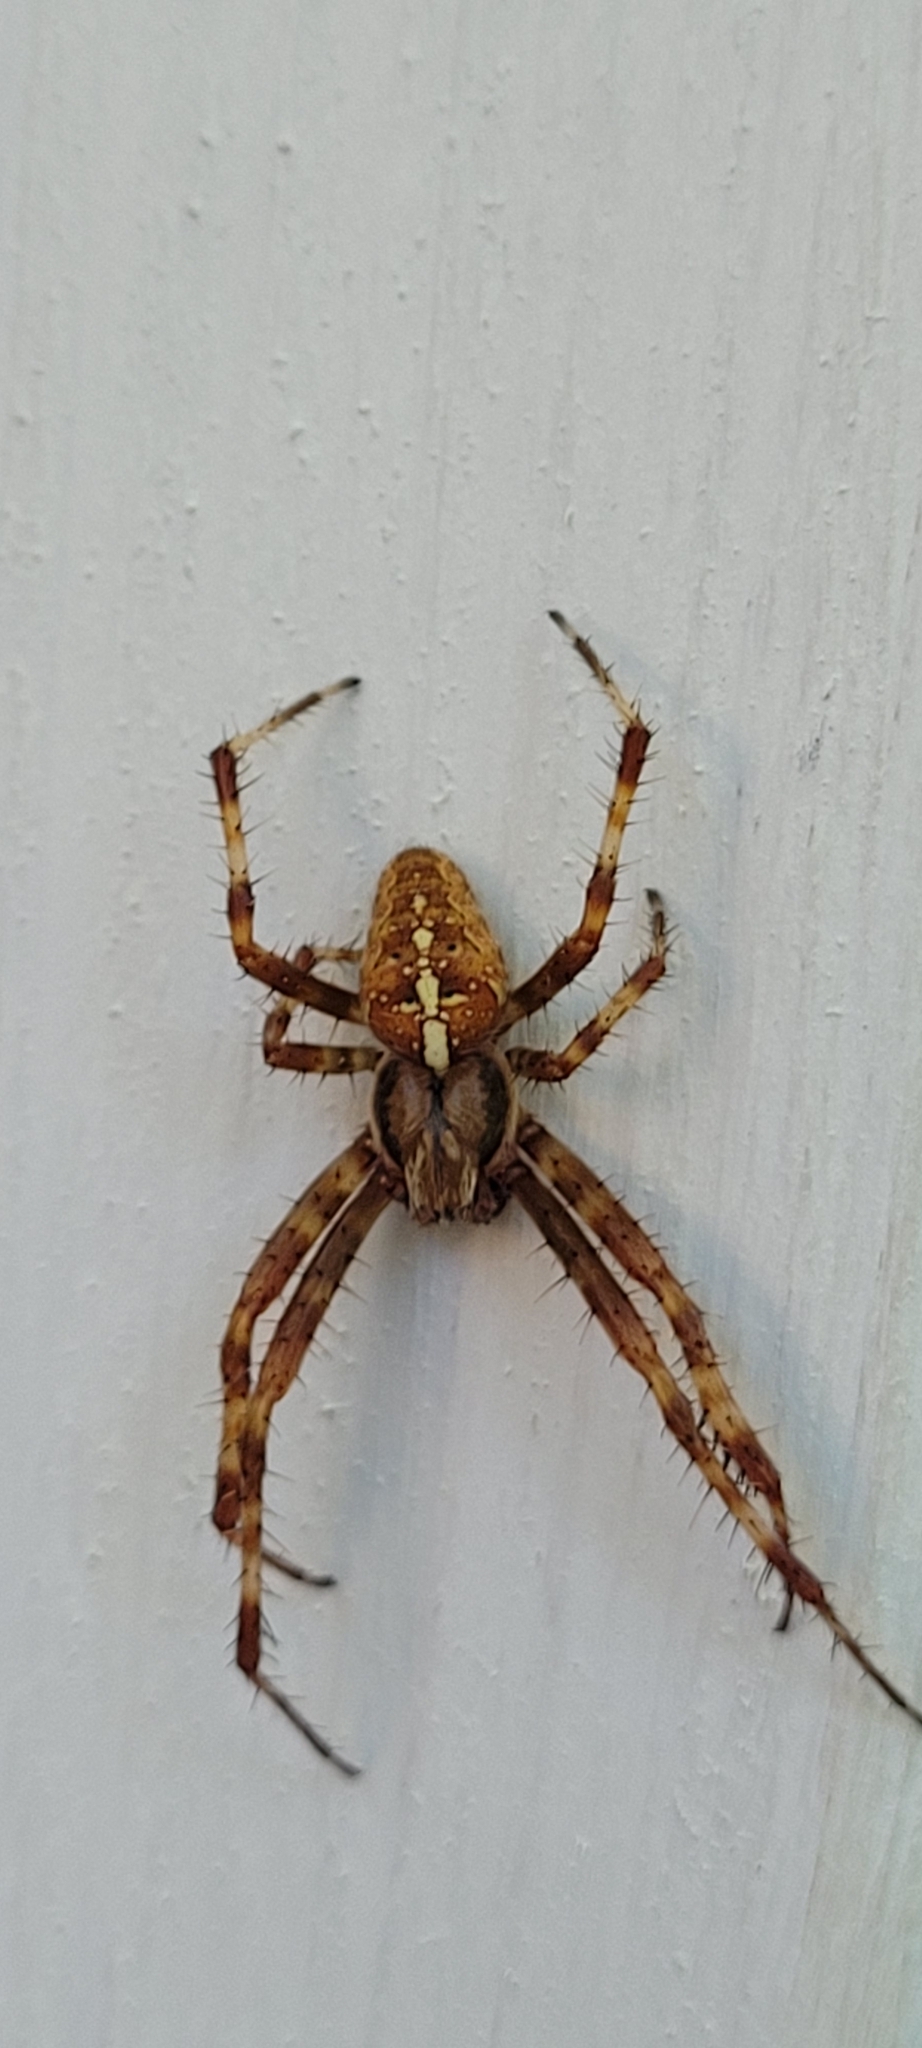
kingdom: Animalia
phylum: Arthropoda
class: Arachnida
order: Araneae
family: Araneidae
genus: Araneus
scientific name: Araneus diadematus
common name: Cross orbweaver
